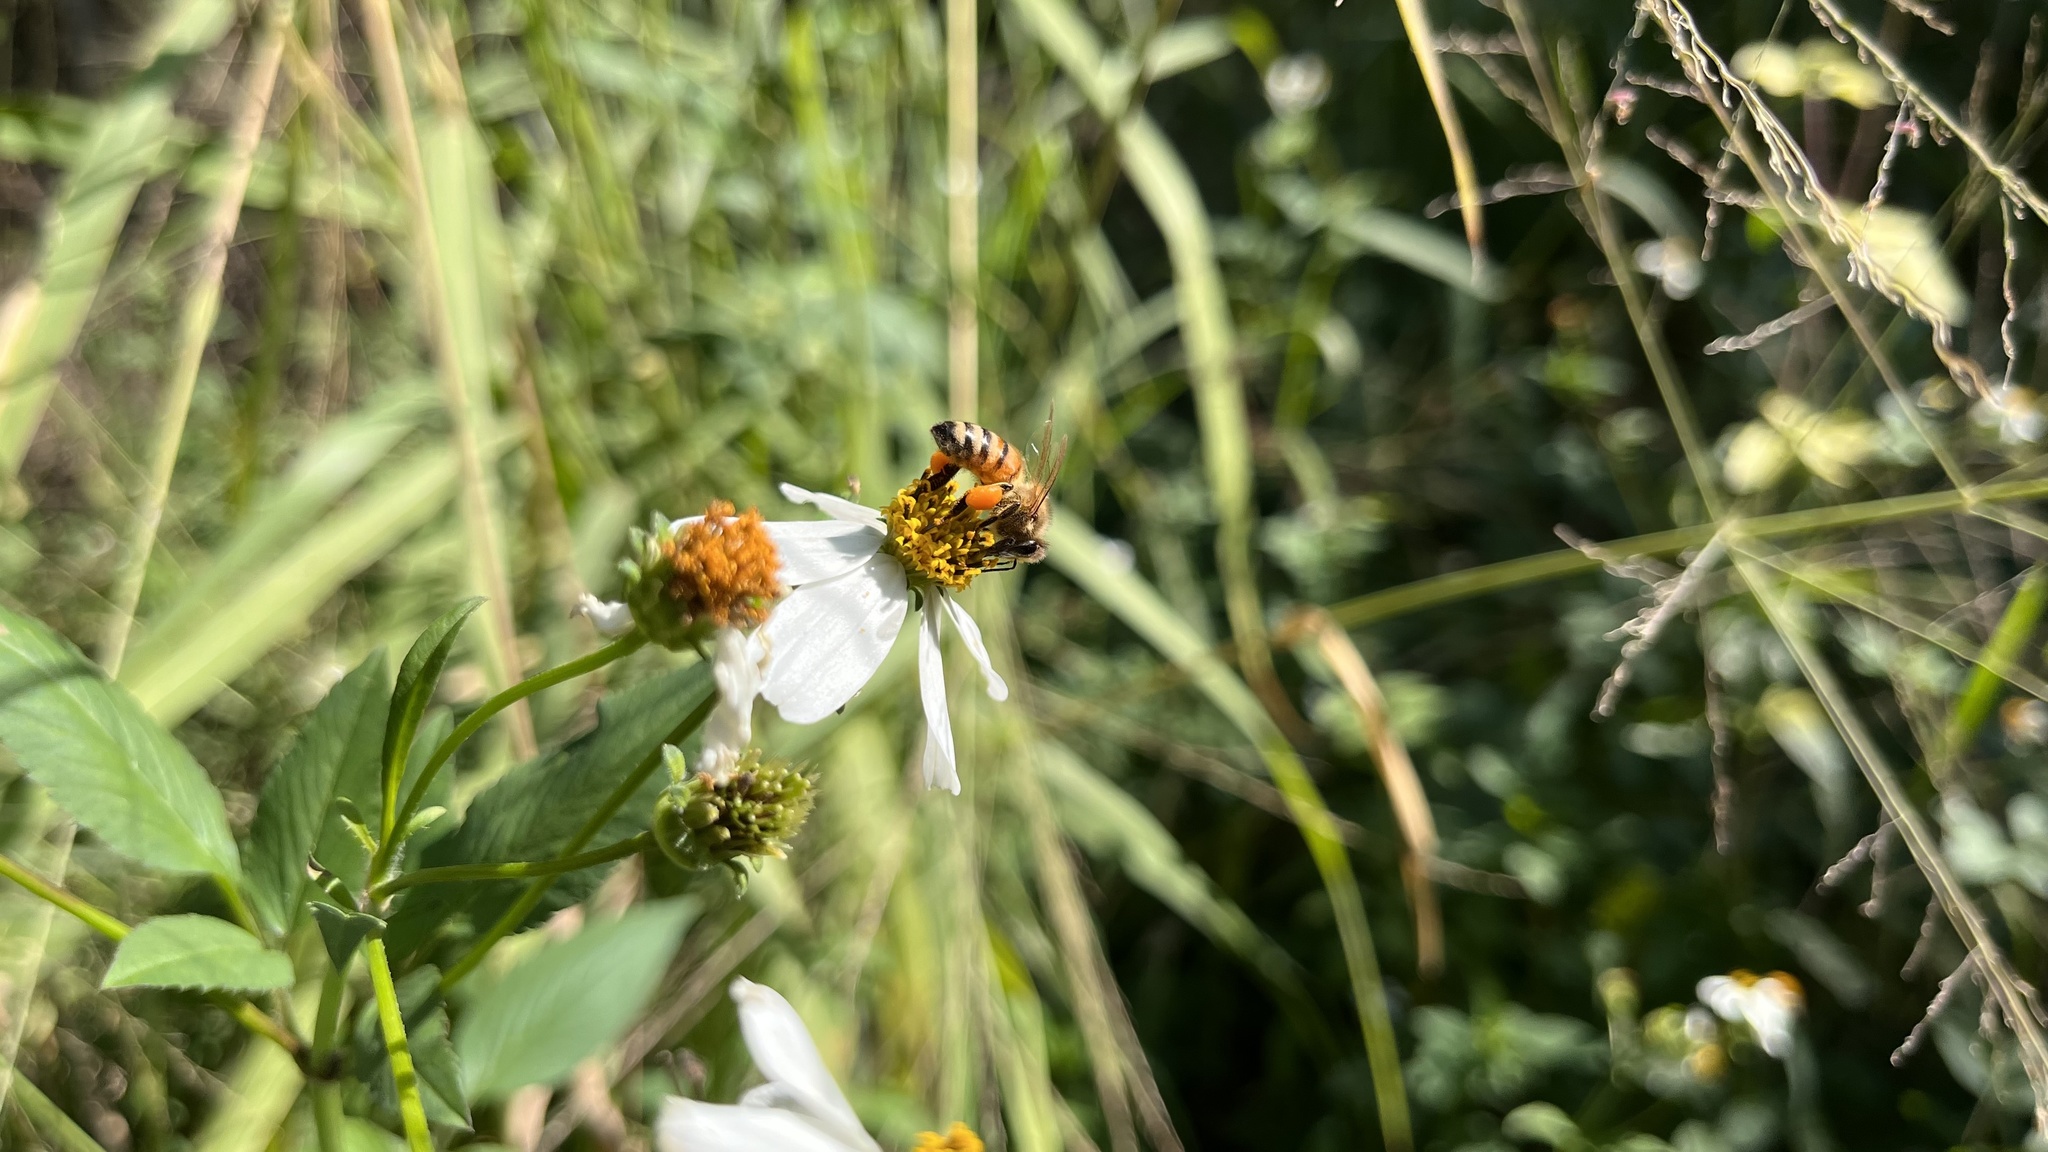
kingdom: Animalia
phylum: Arthropoda
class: Insecta
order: Hymenoptera
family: Apidae
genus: Apis
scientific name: Apis mellifera
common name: Honey bee
